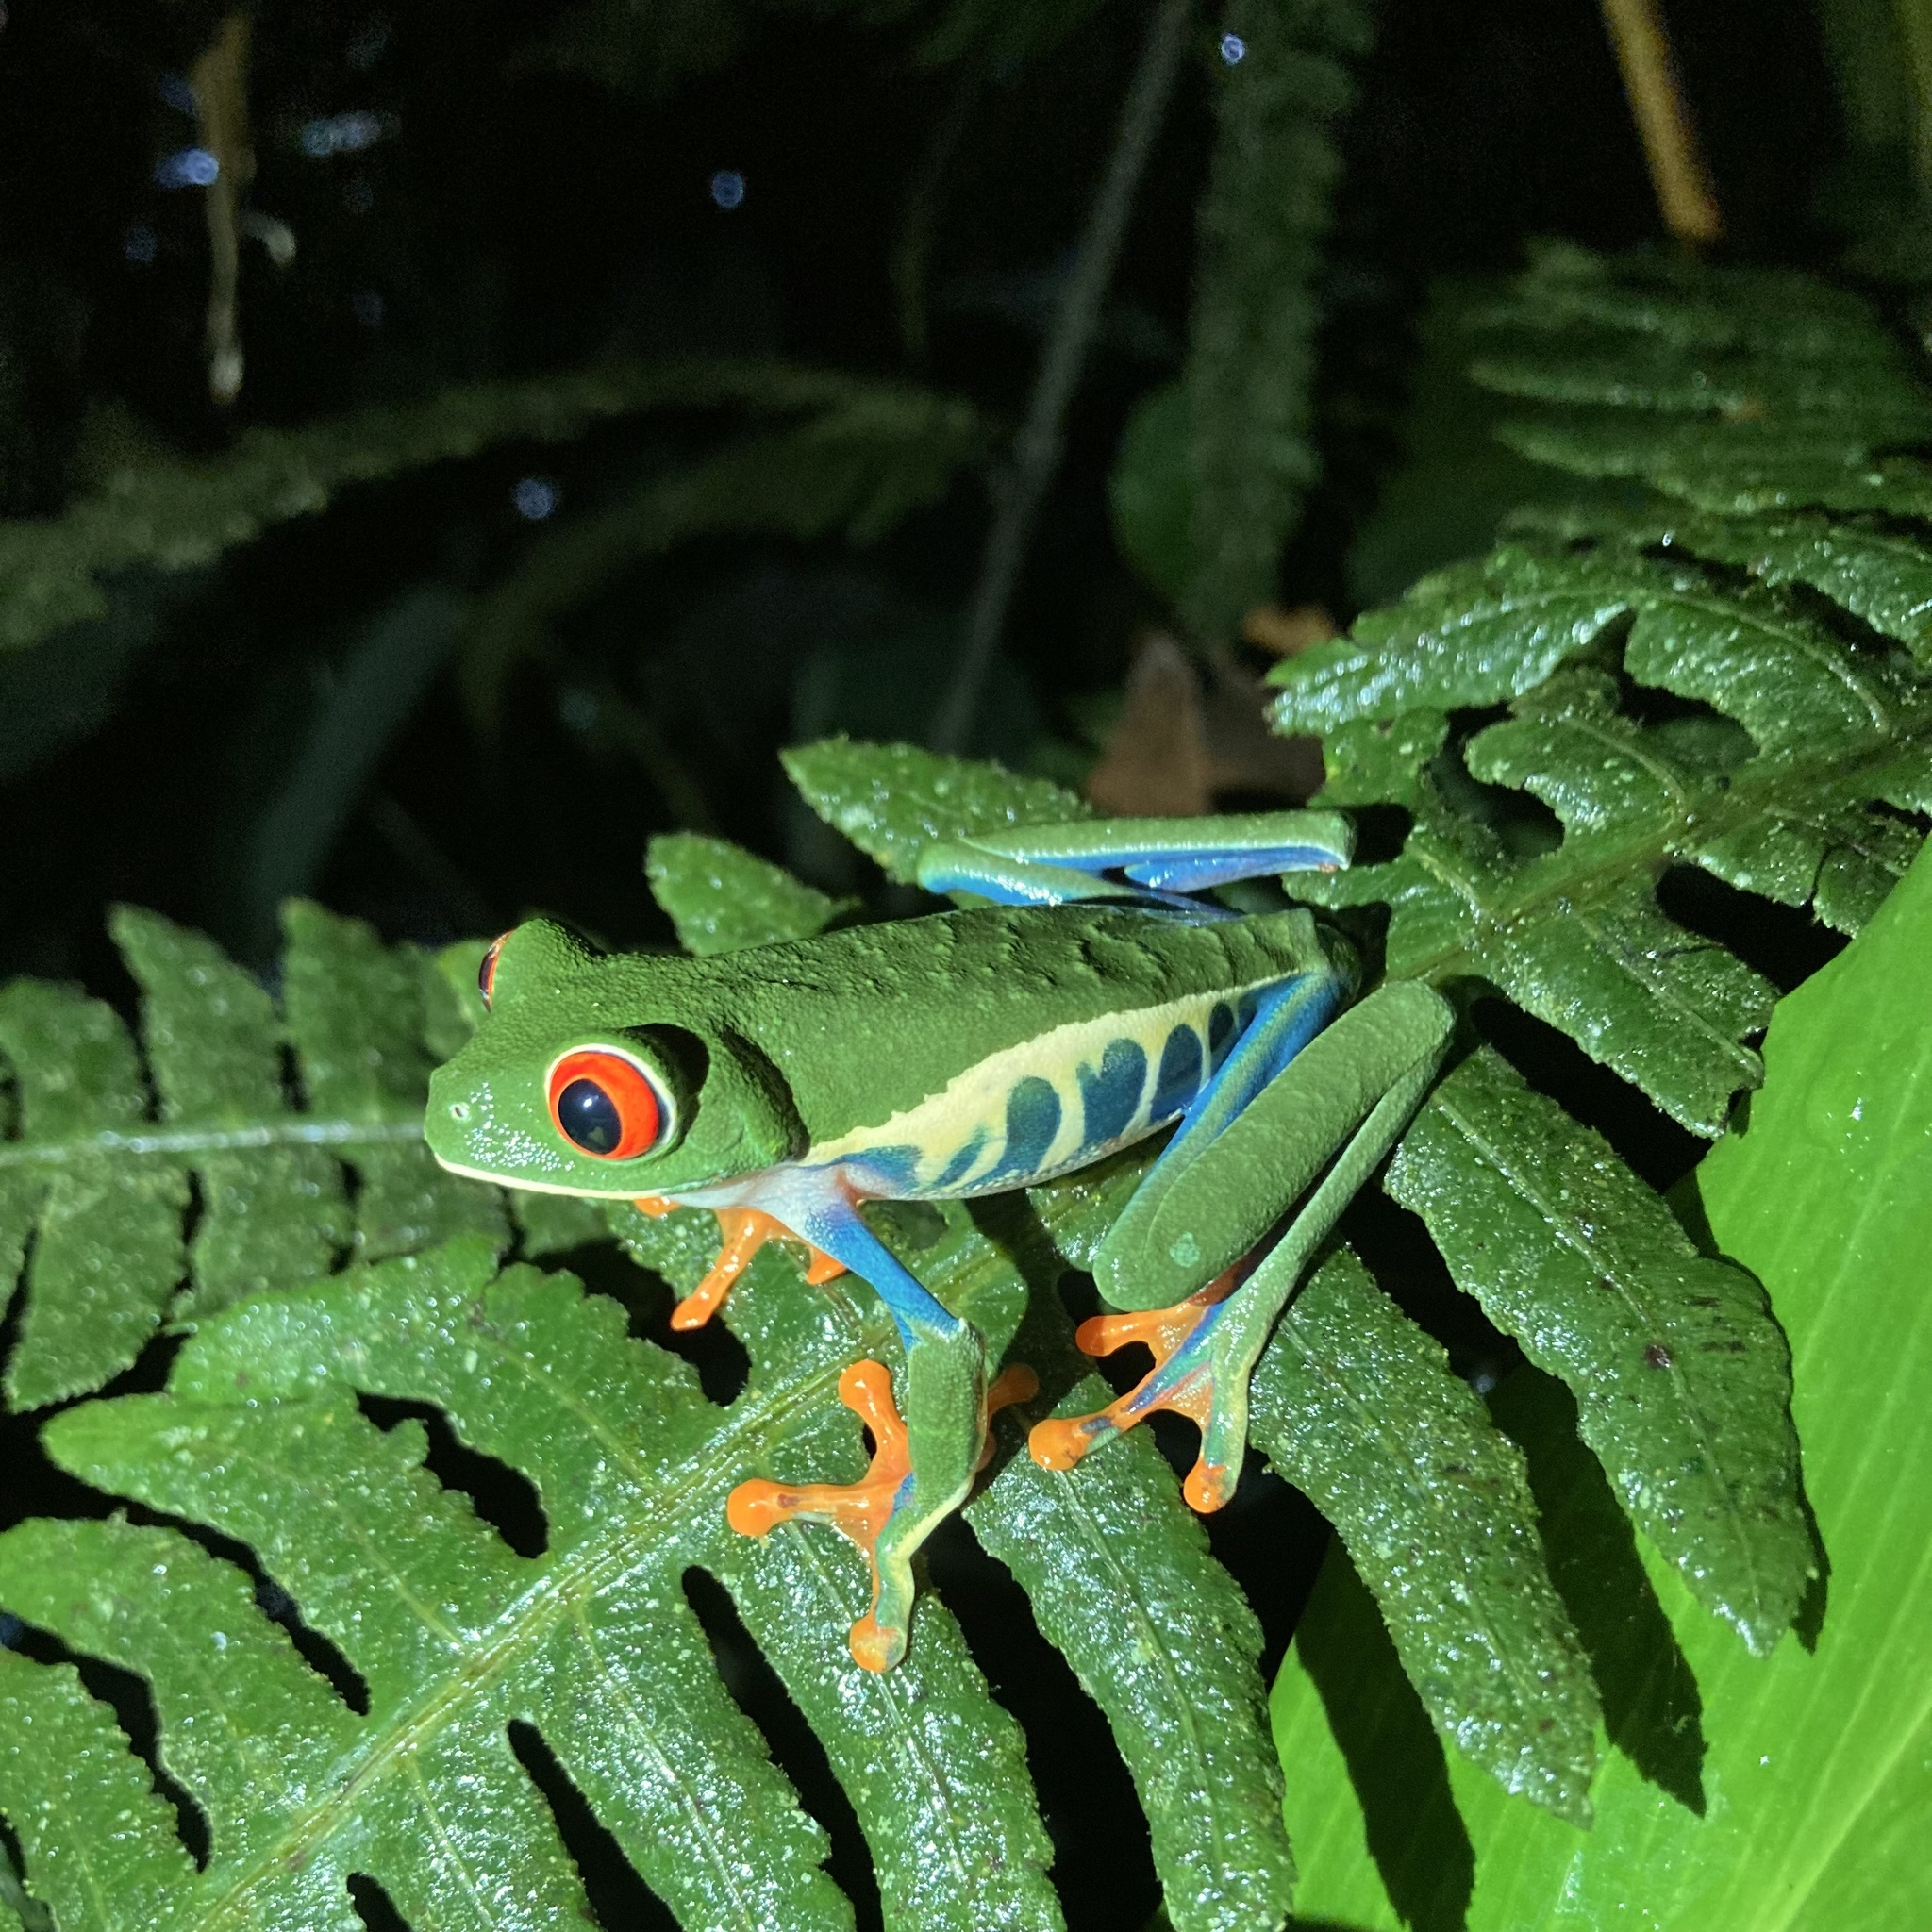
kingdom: Animalia
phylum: Chordata
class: Amphibia
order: Anura
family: Phyllomedusidae
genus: Agalychnis
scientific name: Agalychnis callidryas
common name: Red-eyed treefrog
